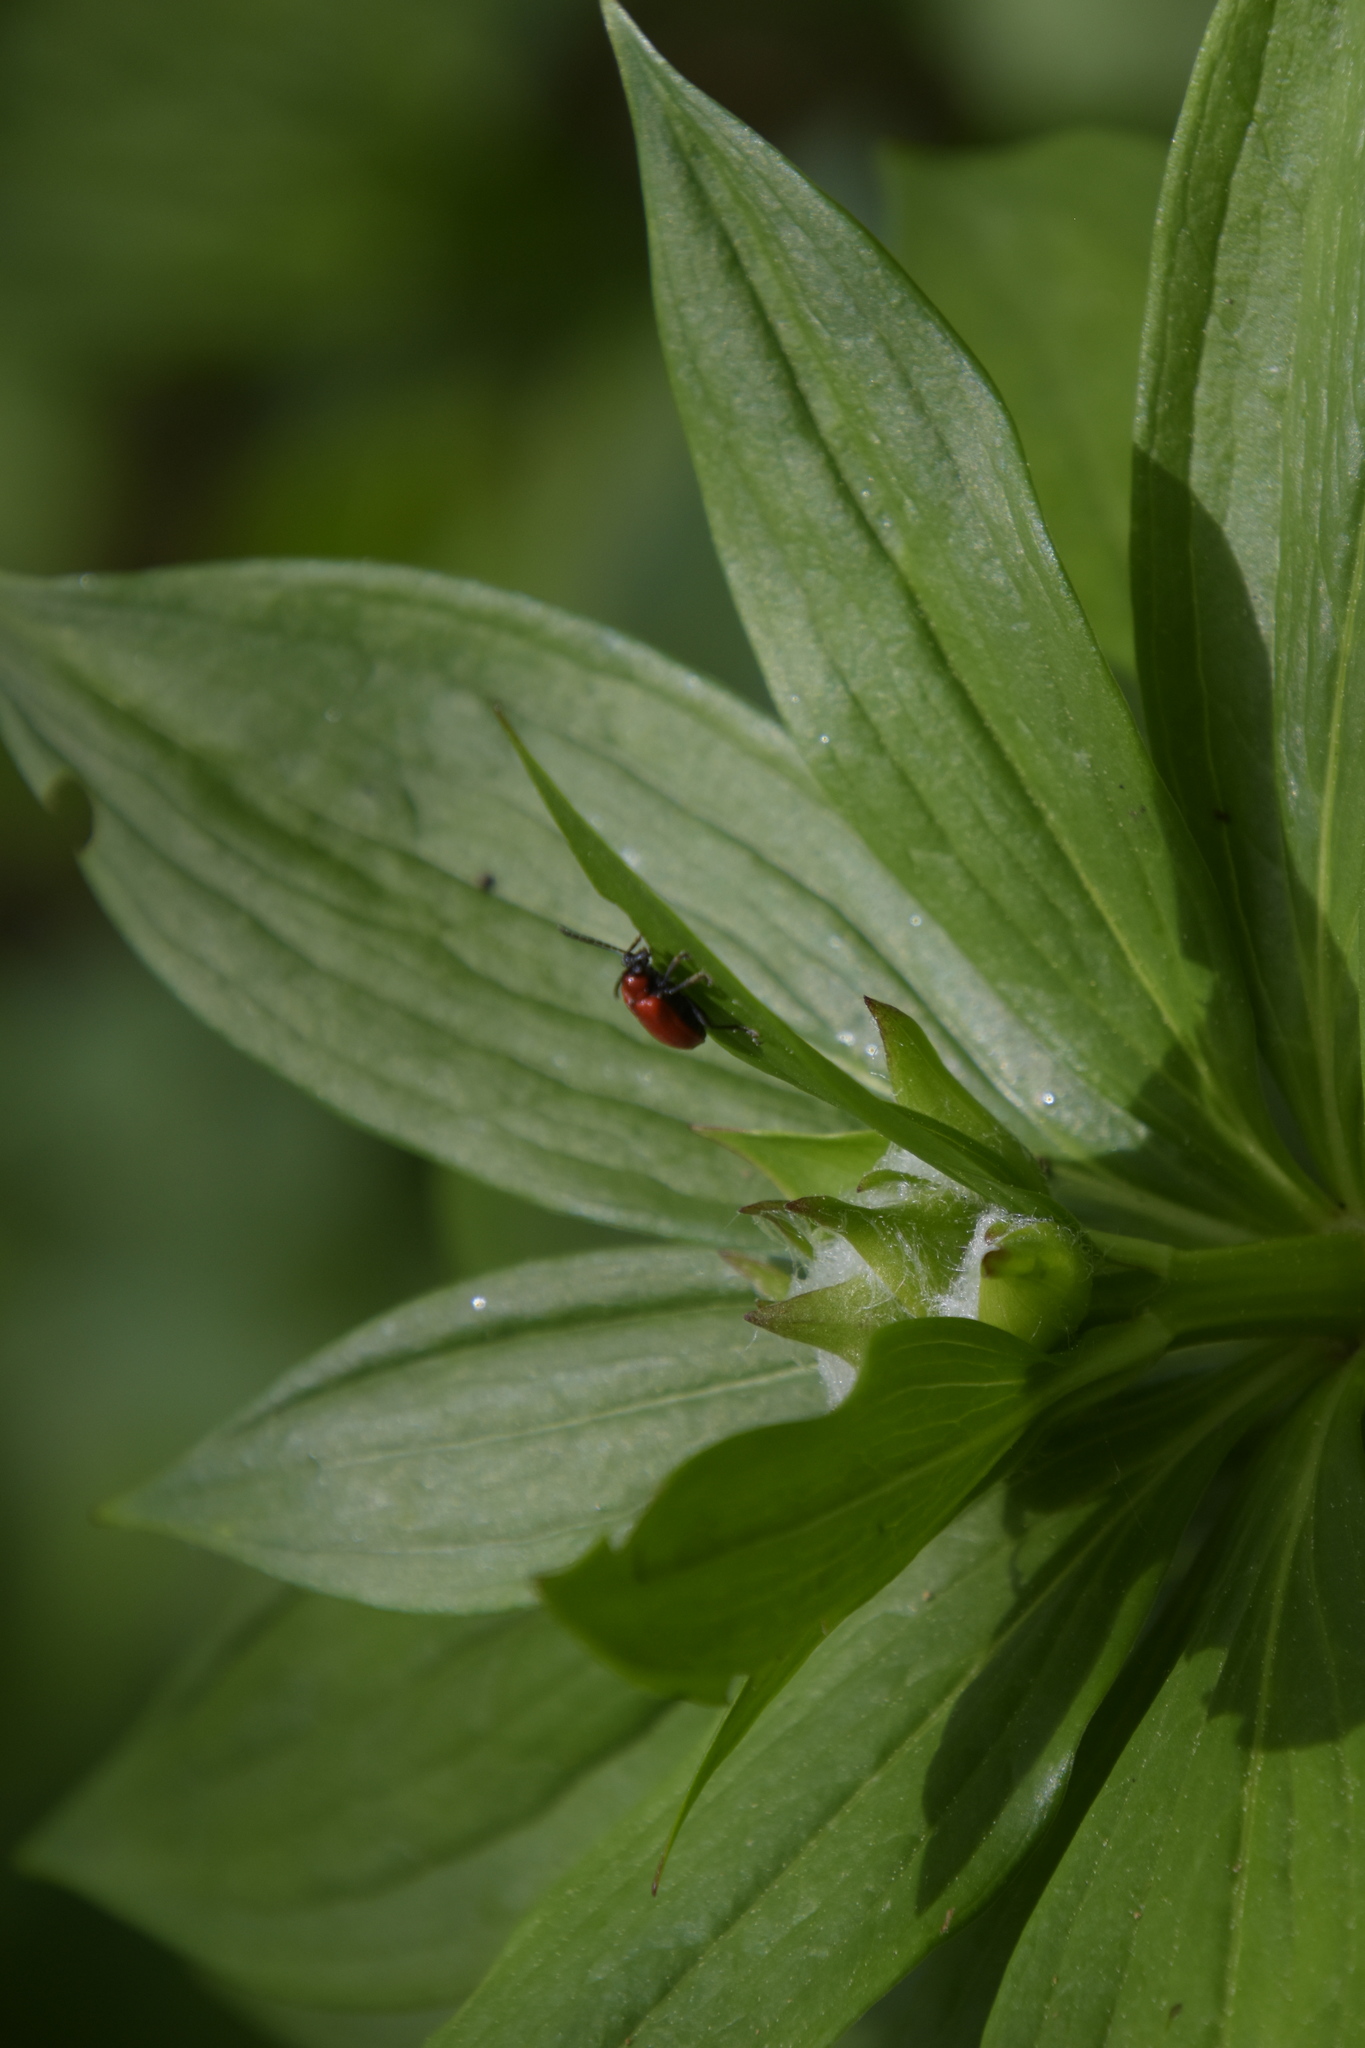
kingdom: Animalia
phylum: Arthropoda
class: Insecta
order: Coleoptera
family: Chrysomelidae
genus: Lilioceris
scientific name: Lilioceris lilii
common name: Lily beetle
